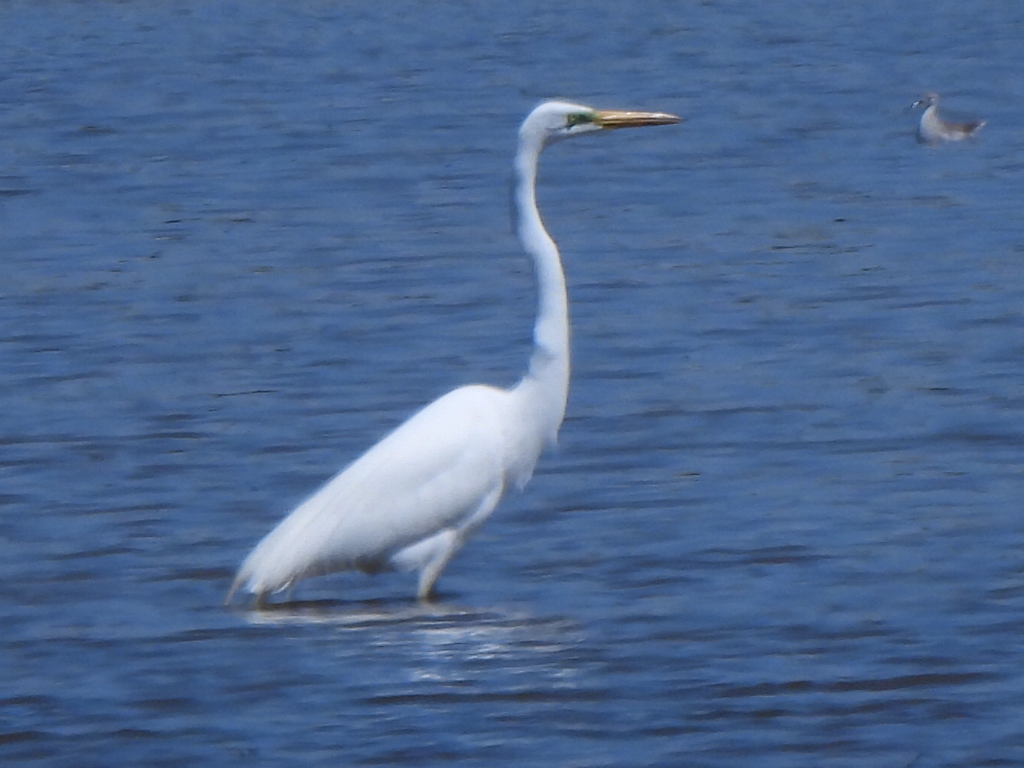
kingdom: Animalia
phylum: Chordata
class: Aves
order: Pelecaniformes
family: Ardeidae
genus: Ardea
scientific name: Ardea alba
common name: Great egret
